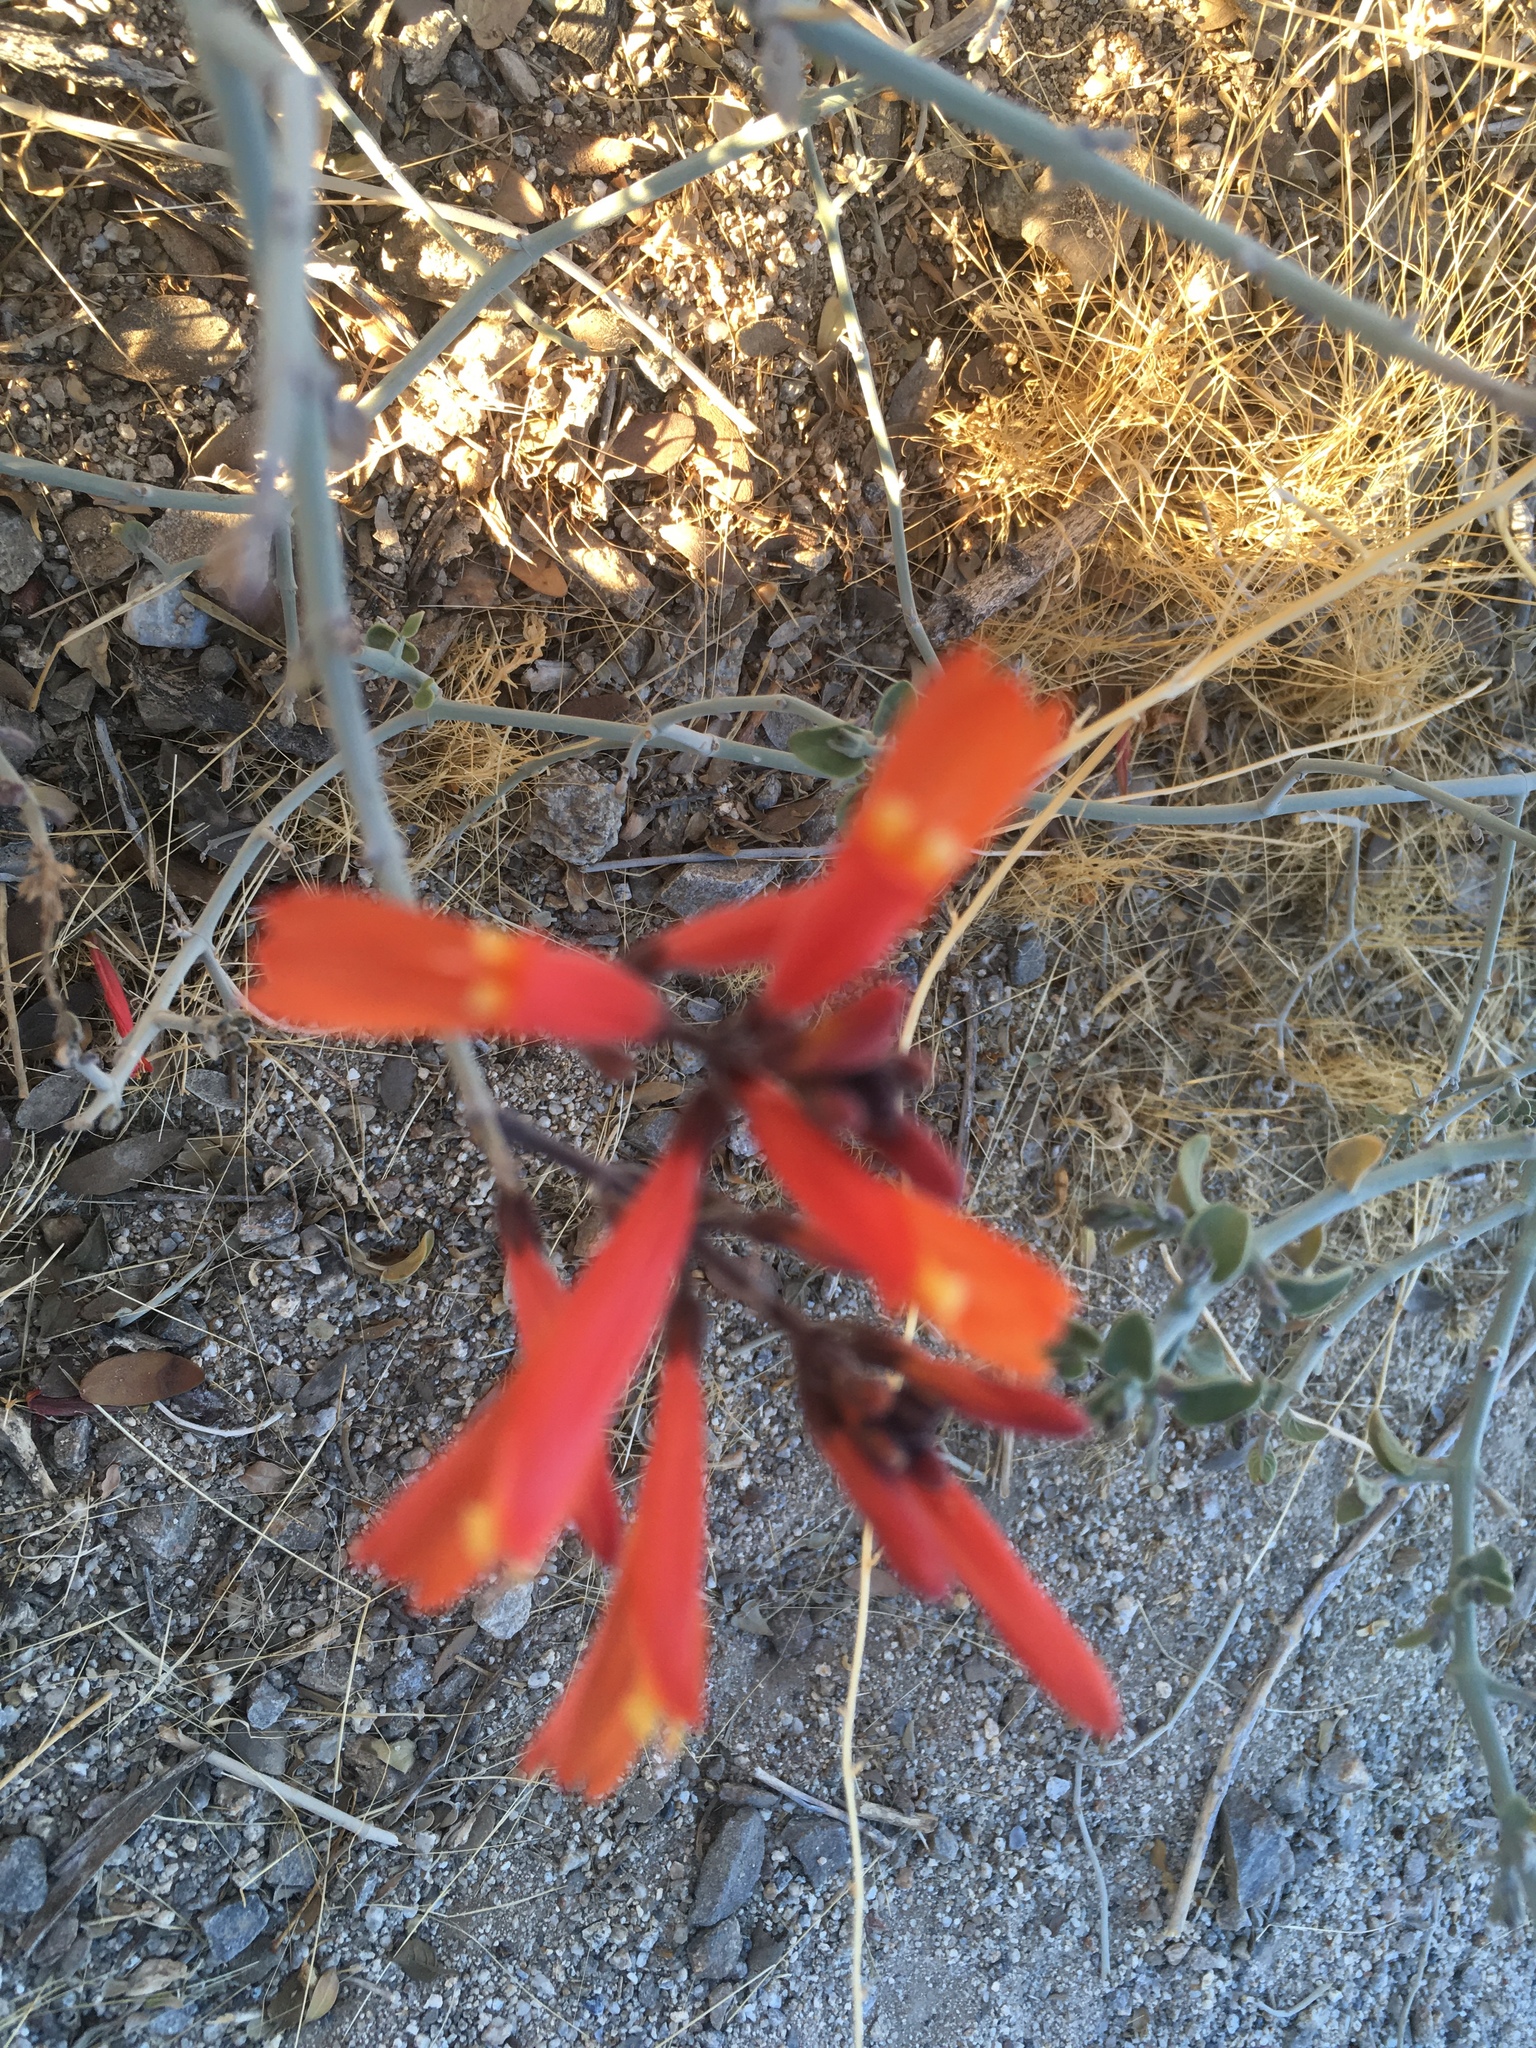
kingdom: Plantae
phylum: Tracheophyta
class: Magnoliopsida
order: Lamiales
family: Acanthaceae
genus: Justicia
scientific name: Justicia californica
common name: Chuparosa-honeysuckle
